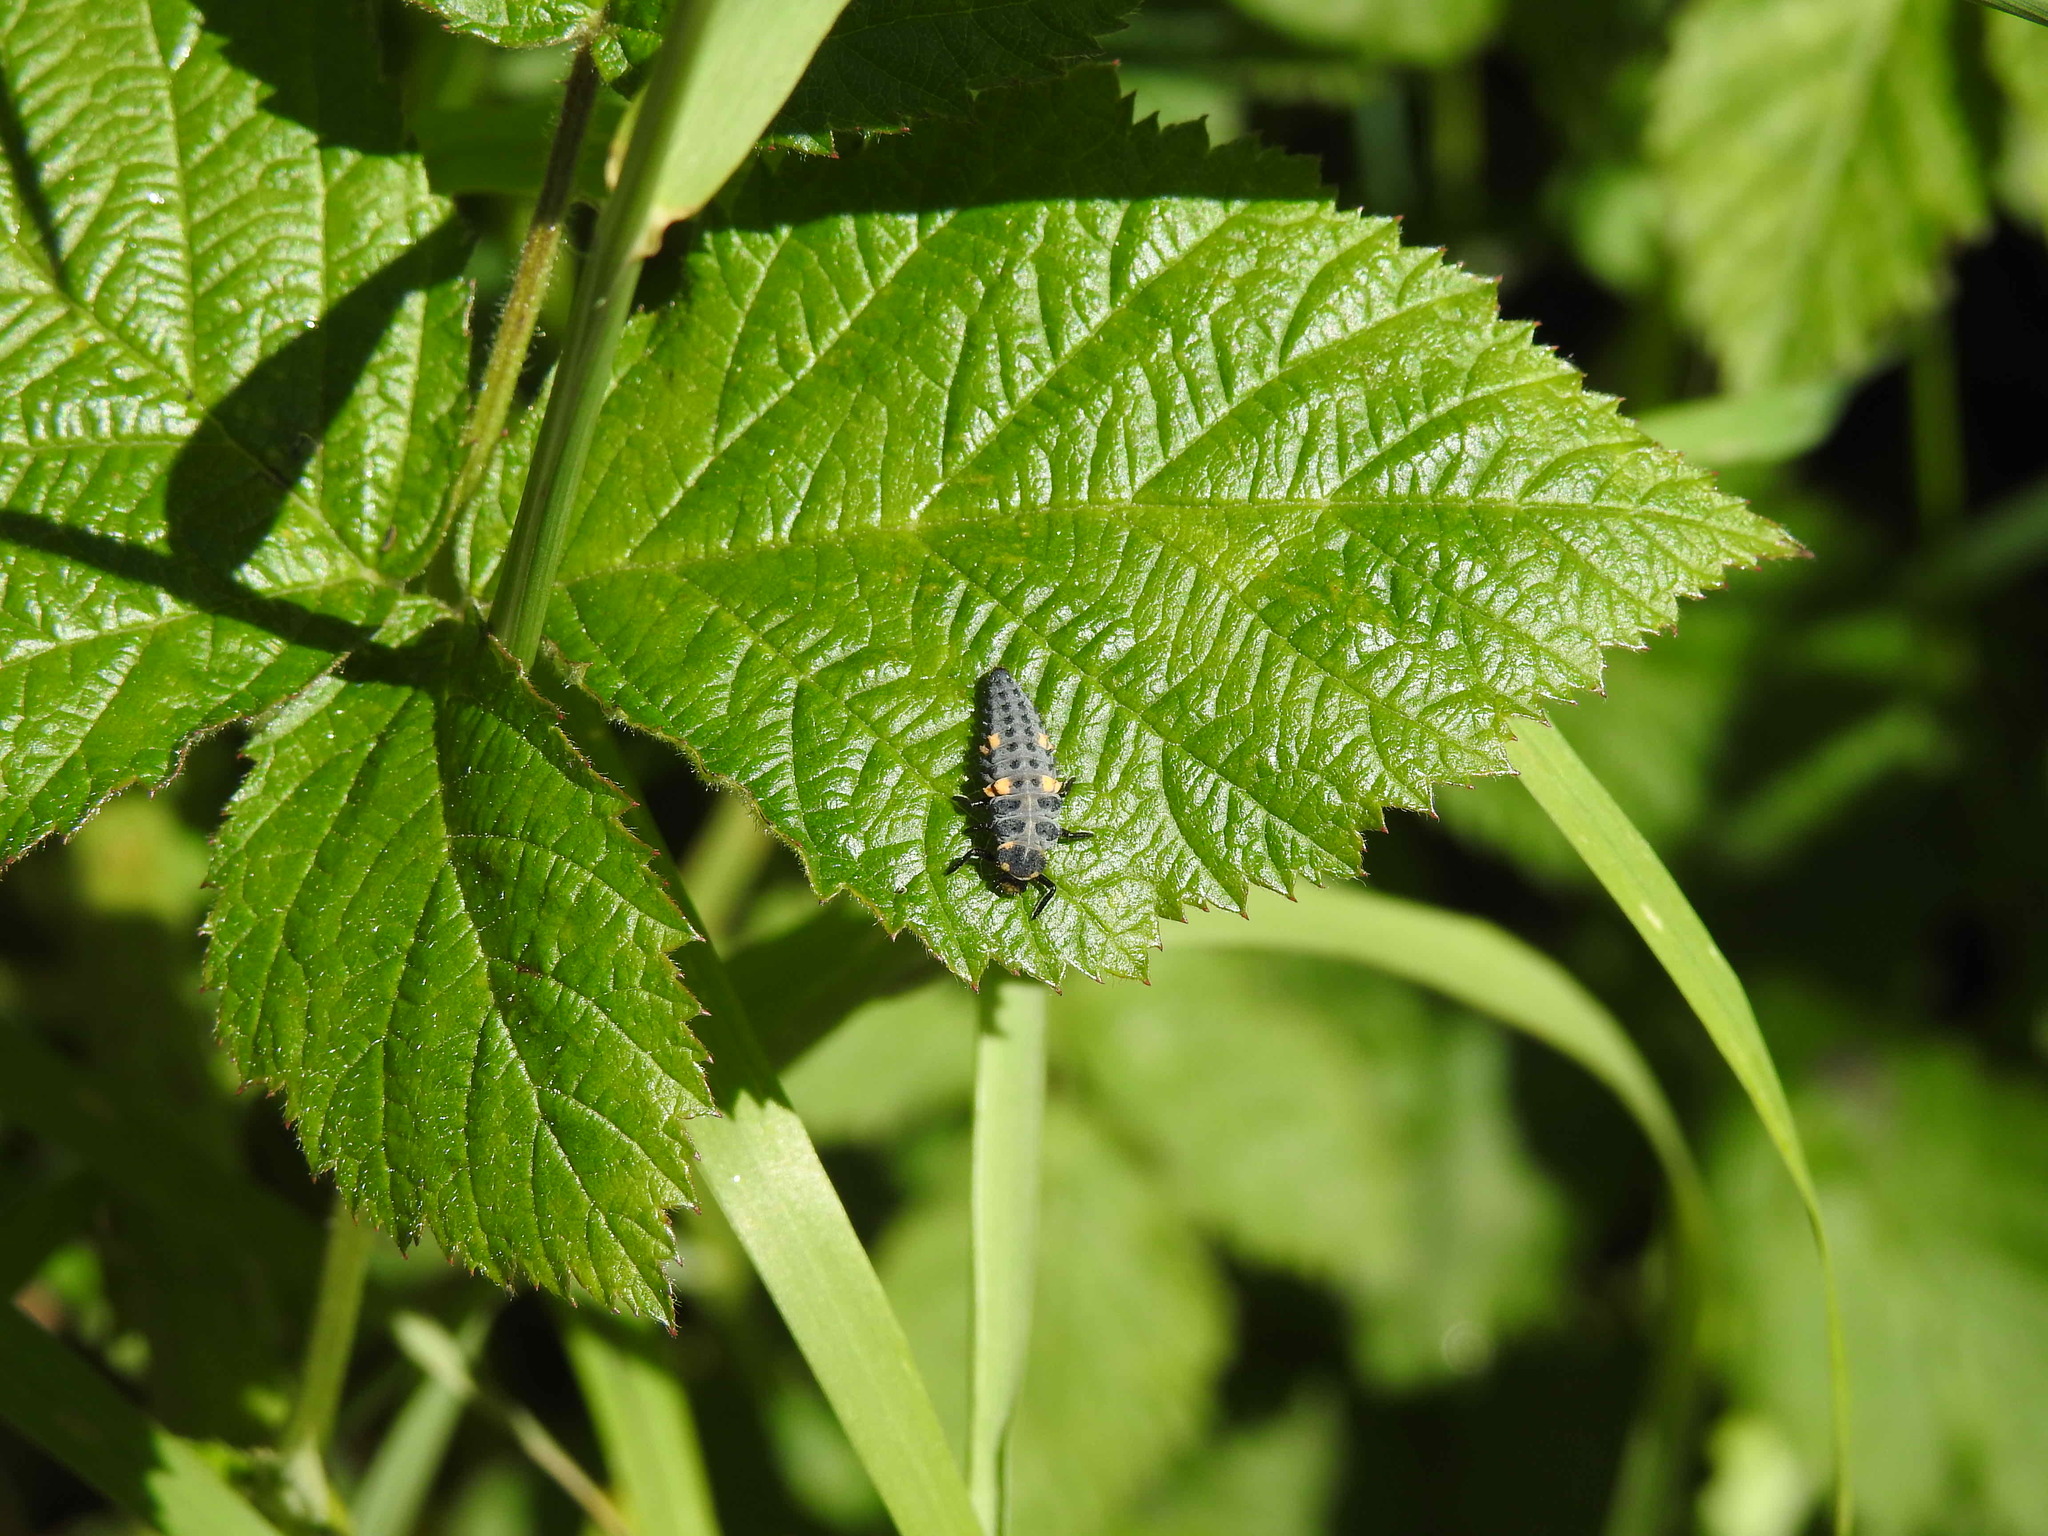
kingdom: Animalia
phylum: Arthropoda
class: Insecta
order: Coleoptera
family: Coccinellidae
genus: Coccinella
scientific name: Coccinella septempunctata
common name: Sevenspotted lady beetle
